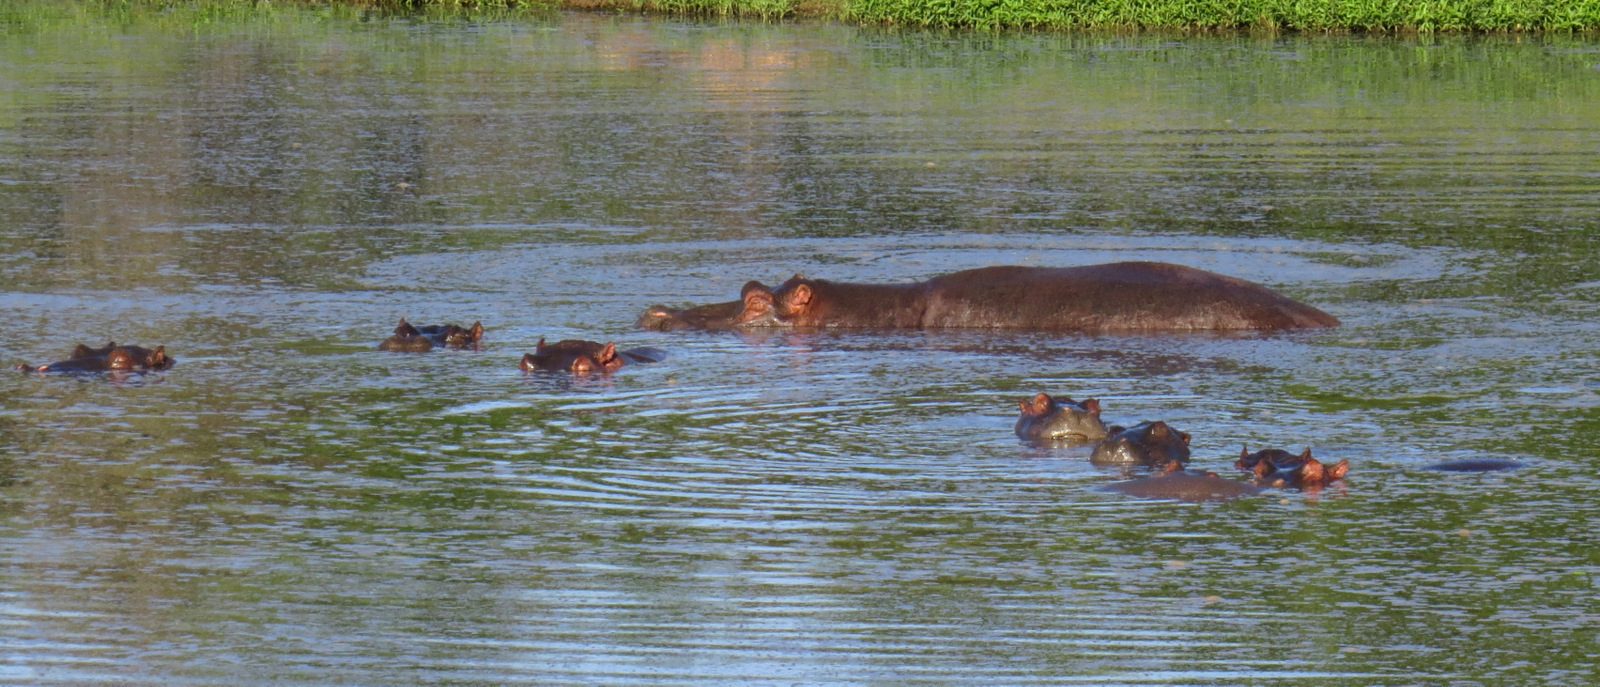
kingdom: Animalia
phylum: Chordata
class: Mammalia
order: Artiodactyla
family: Hippopotamidae
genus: Hippopotamus
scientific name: Hippopotamus amphibius
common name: Common hippopotamus
